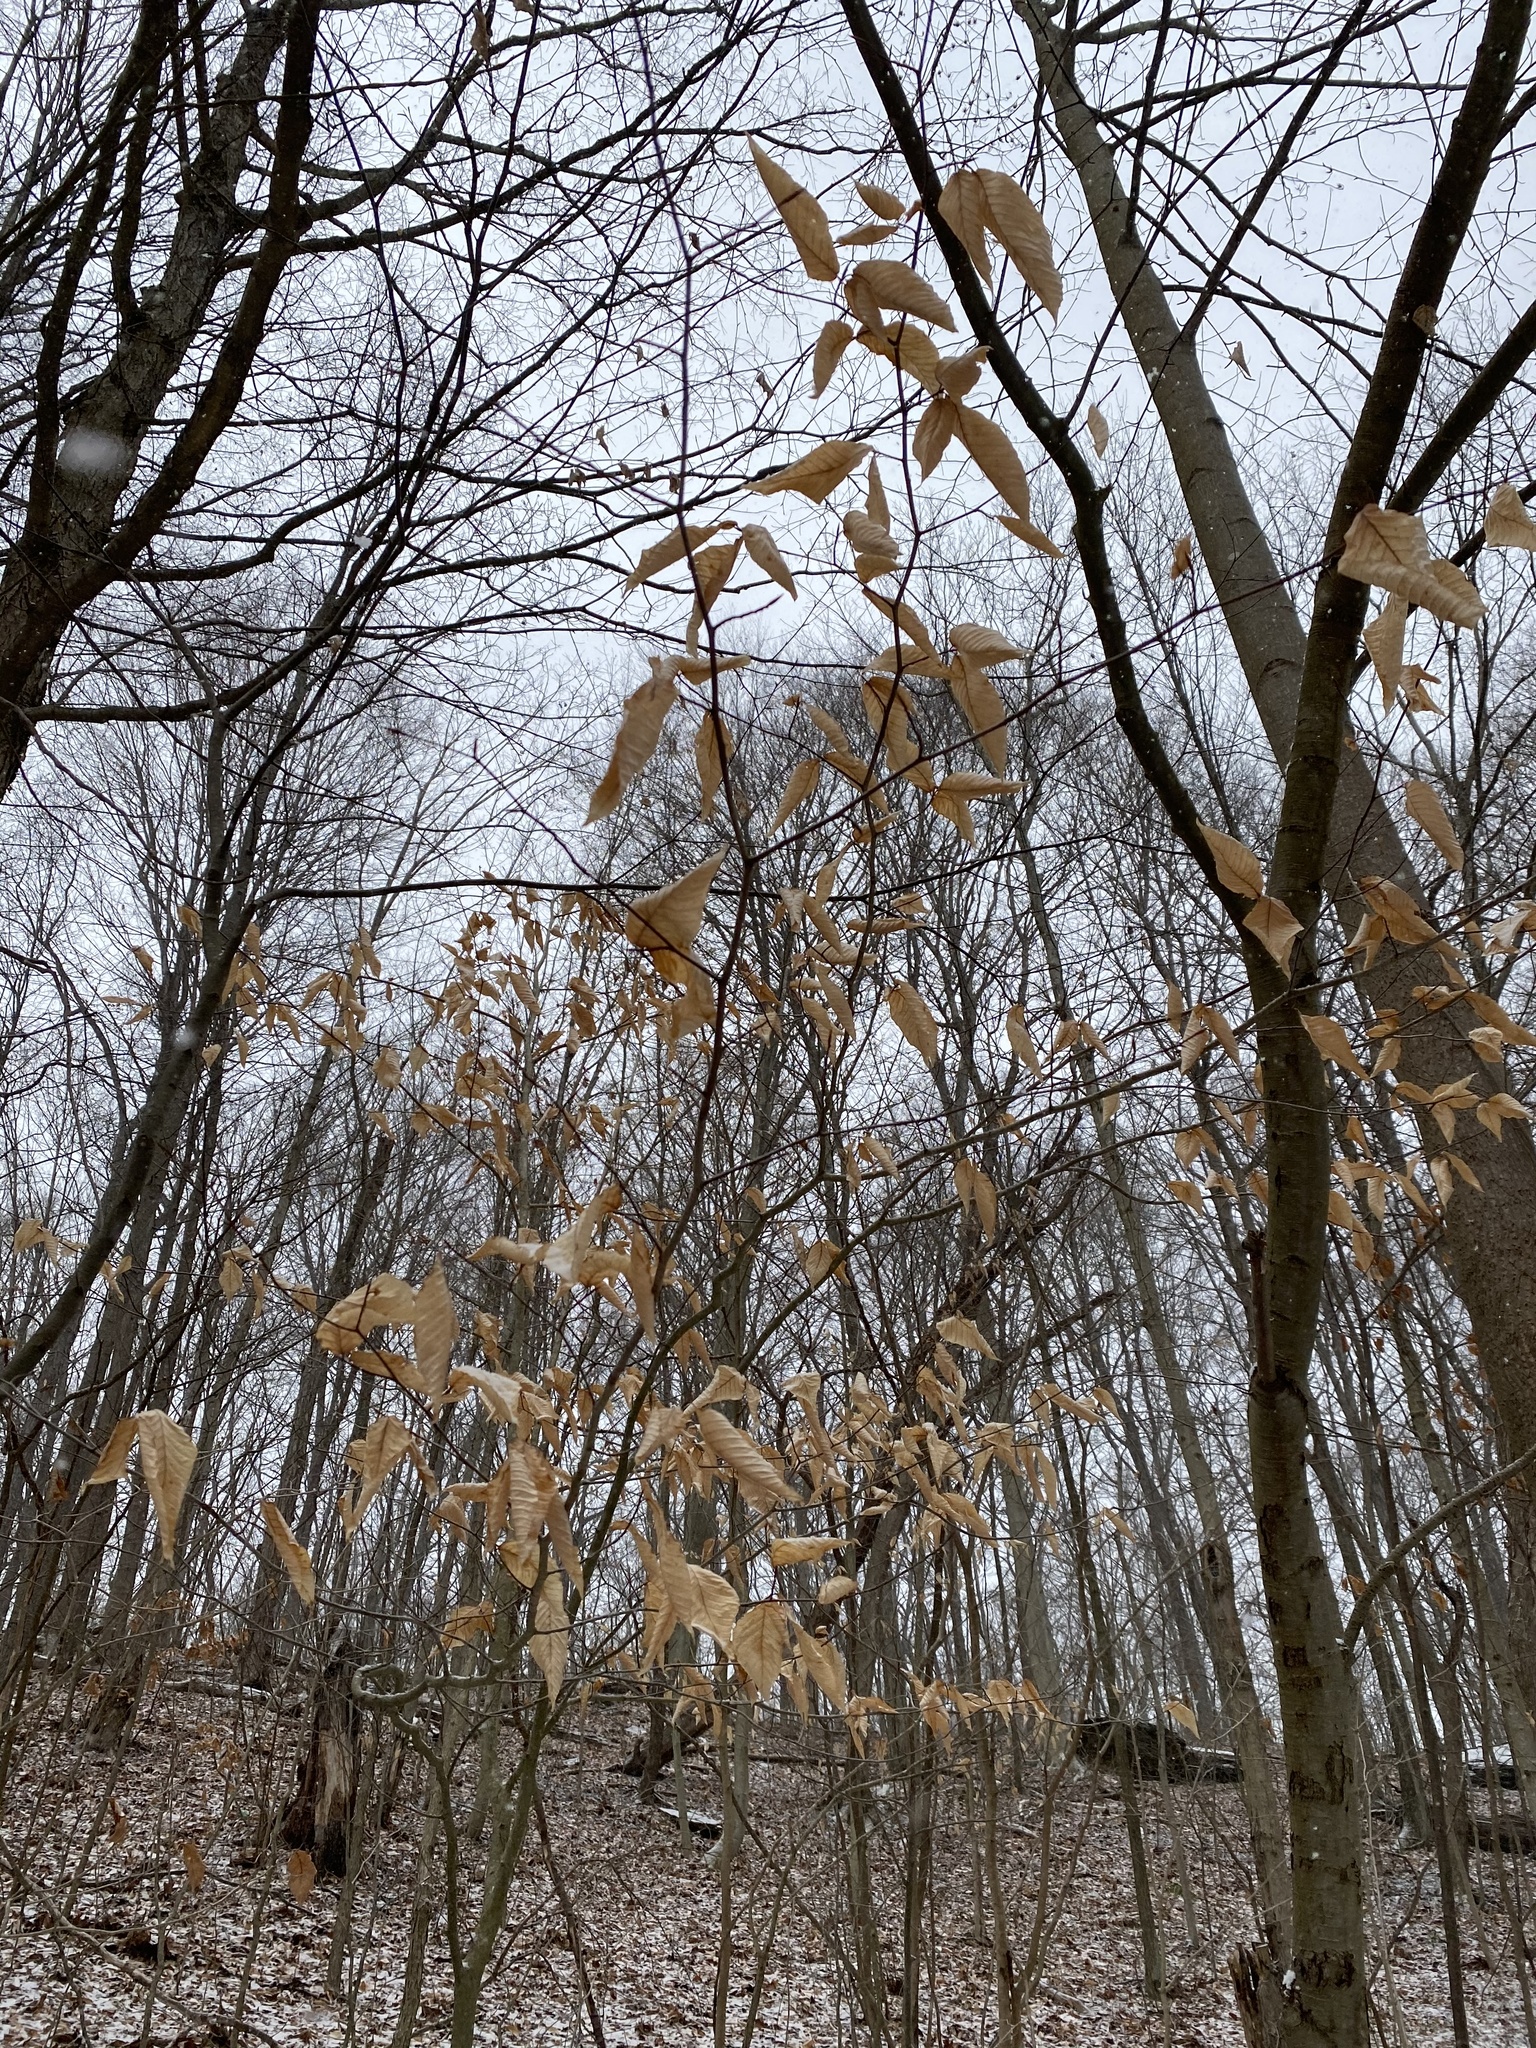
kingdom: Plantae
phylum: Tracheophyta
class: Magnoliopsida
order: Fagales
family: Fagaceae
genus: Fagus
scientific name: Fagus grandifolia
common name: American beech
